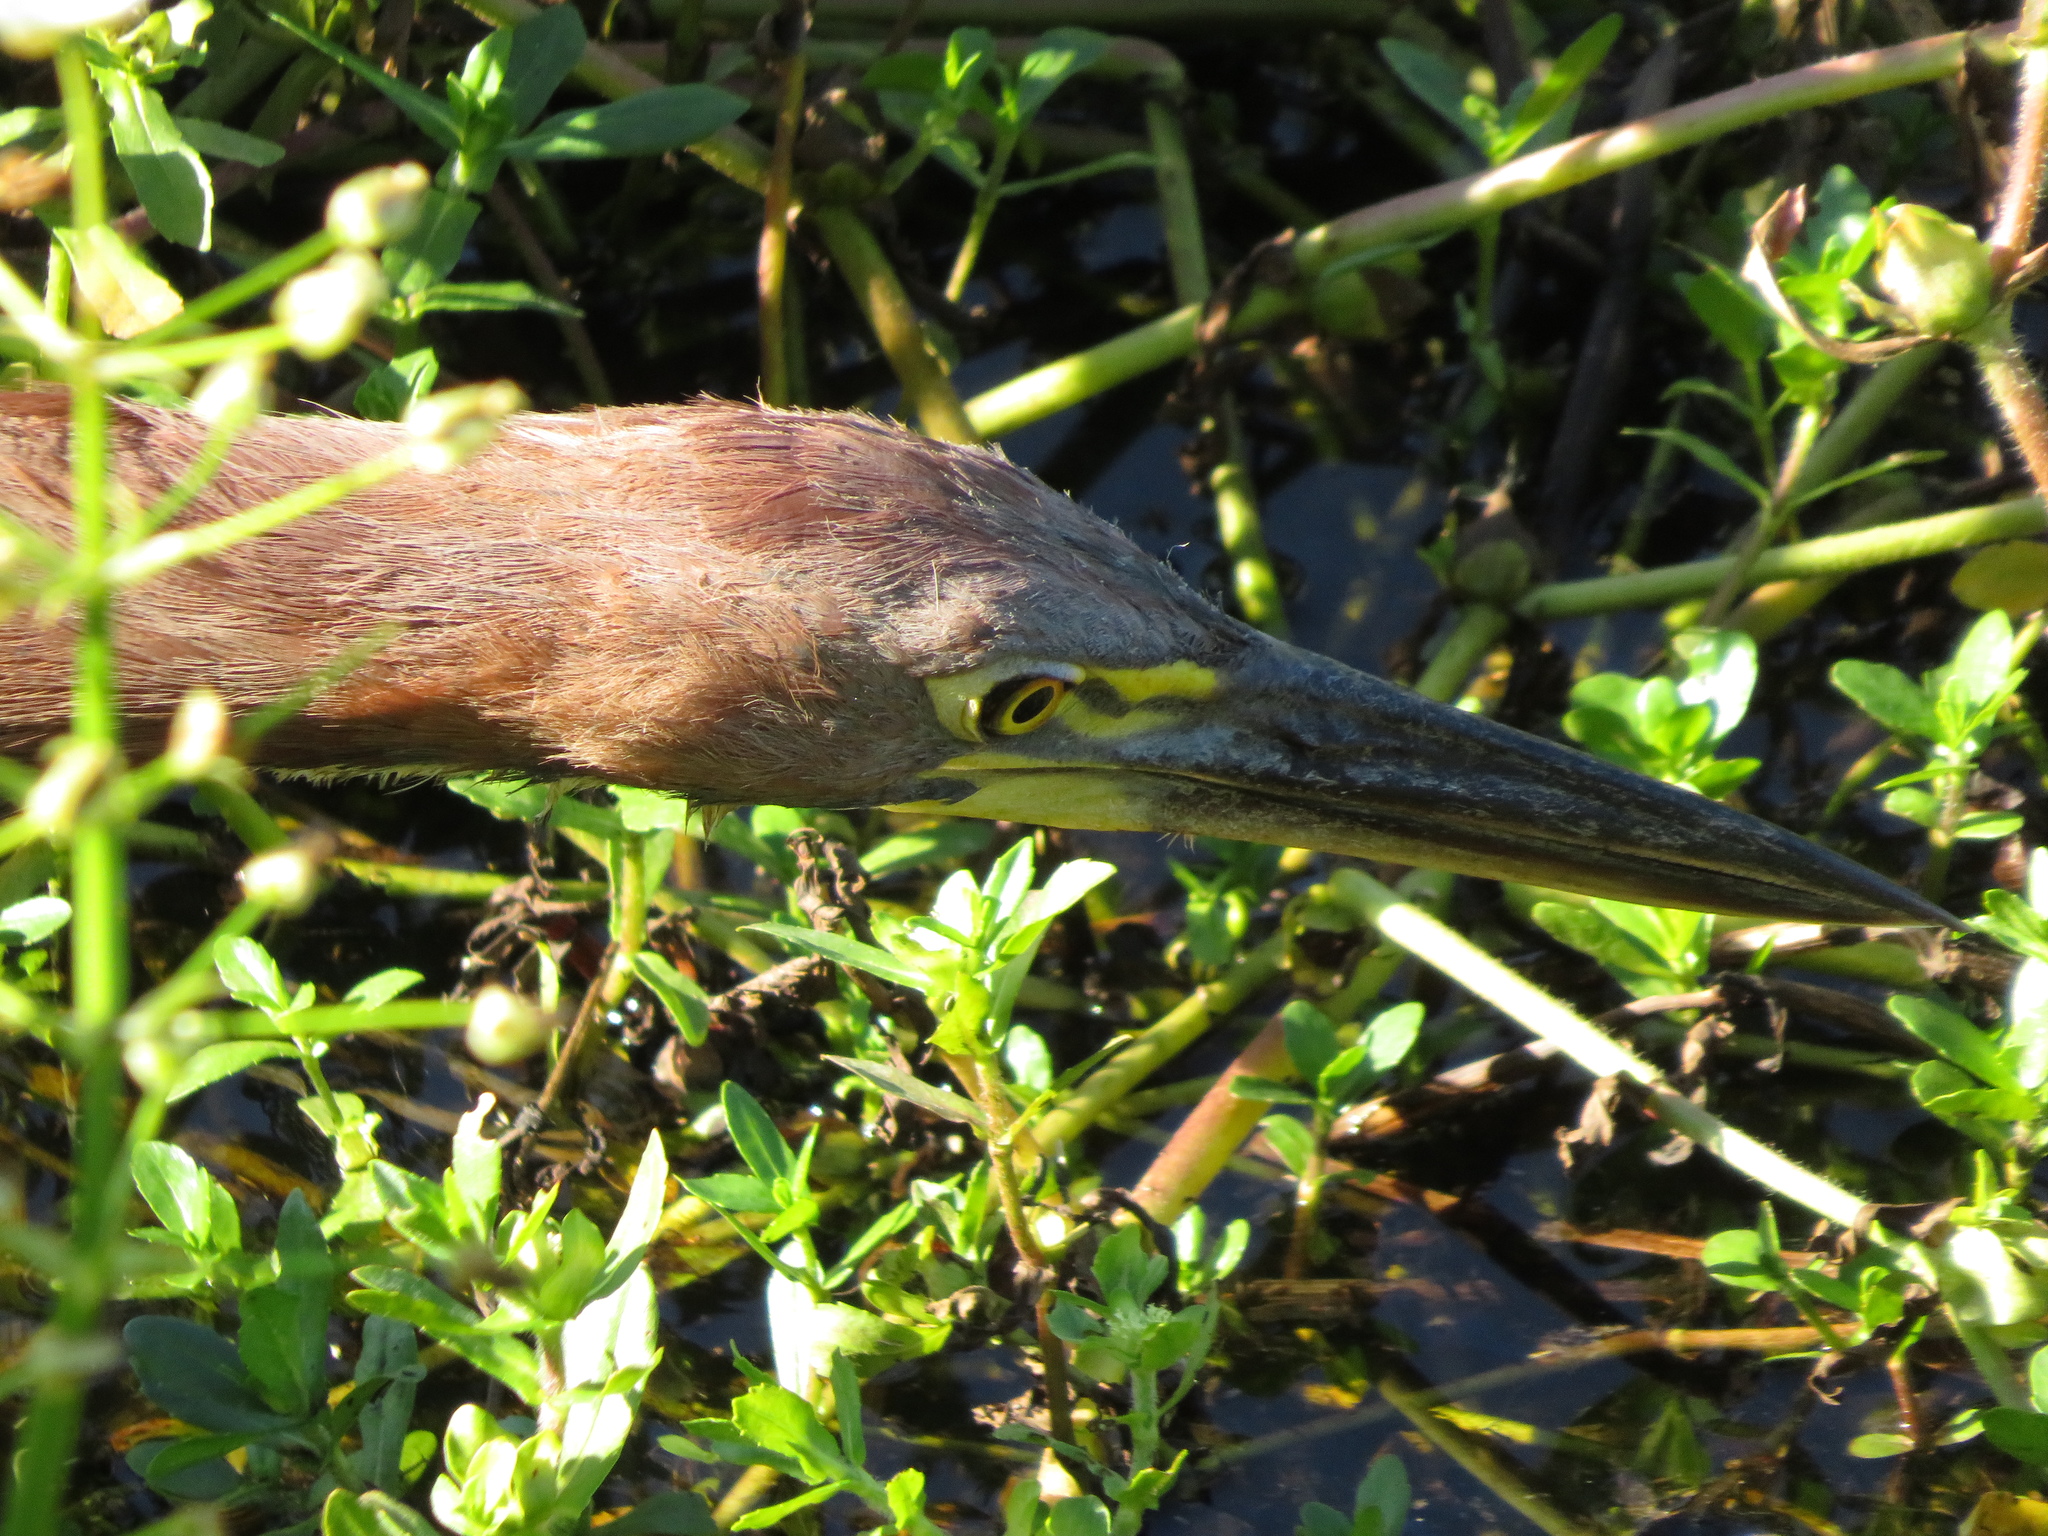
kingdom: Animalia
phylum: Chordata
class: Aves
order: Pelecaniformes
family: Ardeidae
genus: Tigrisoma
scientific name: Tigrisoma lineatum
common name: Rufescent tiger-heron
